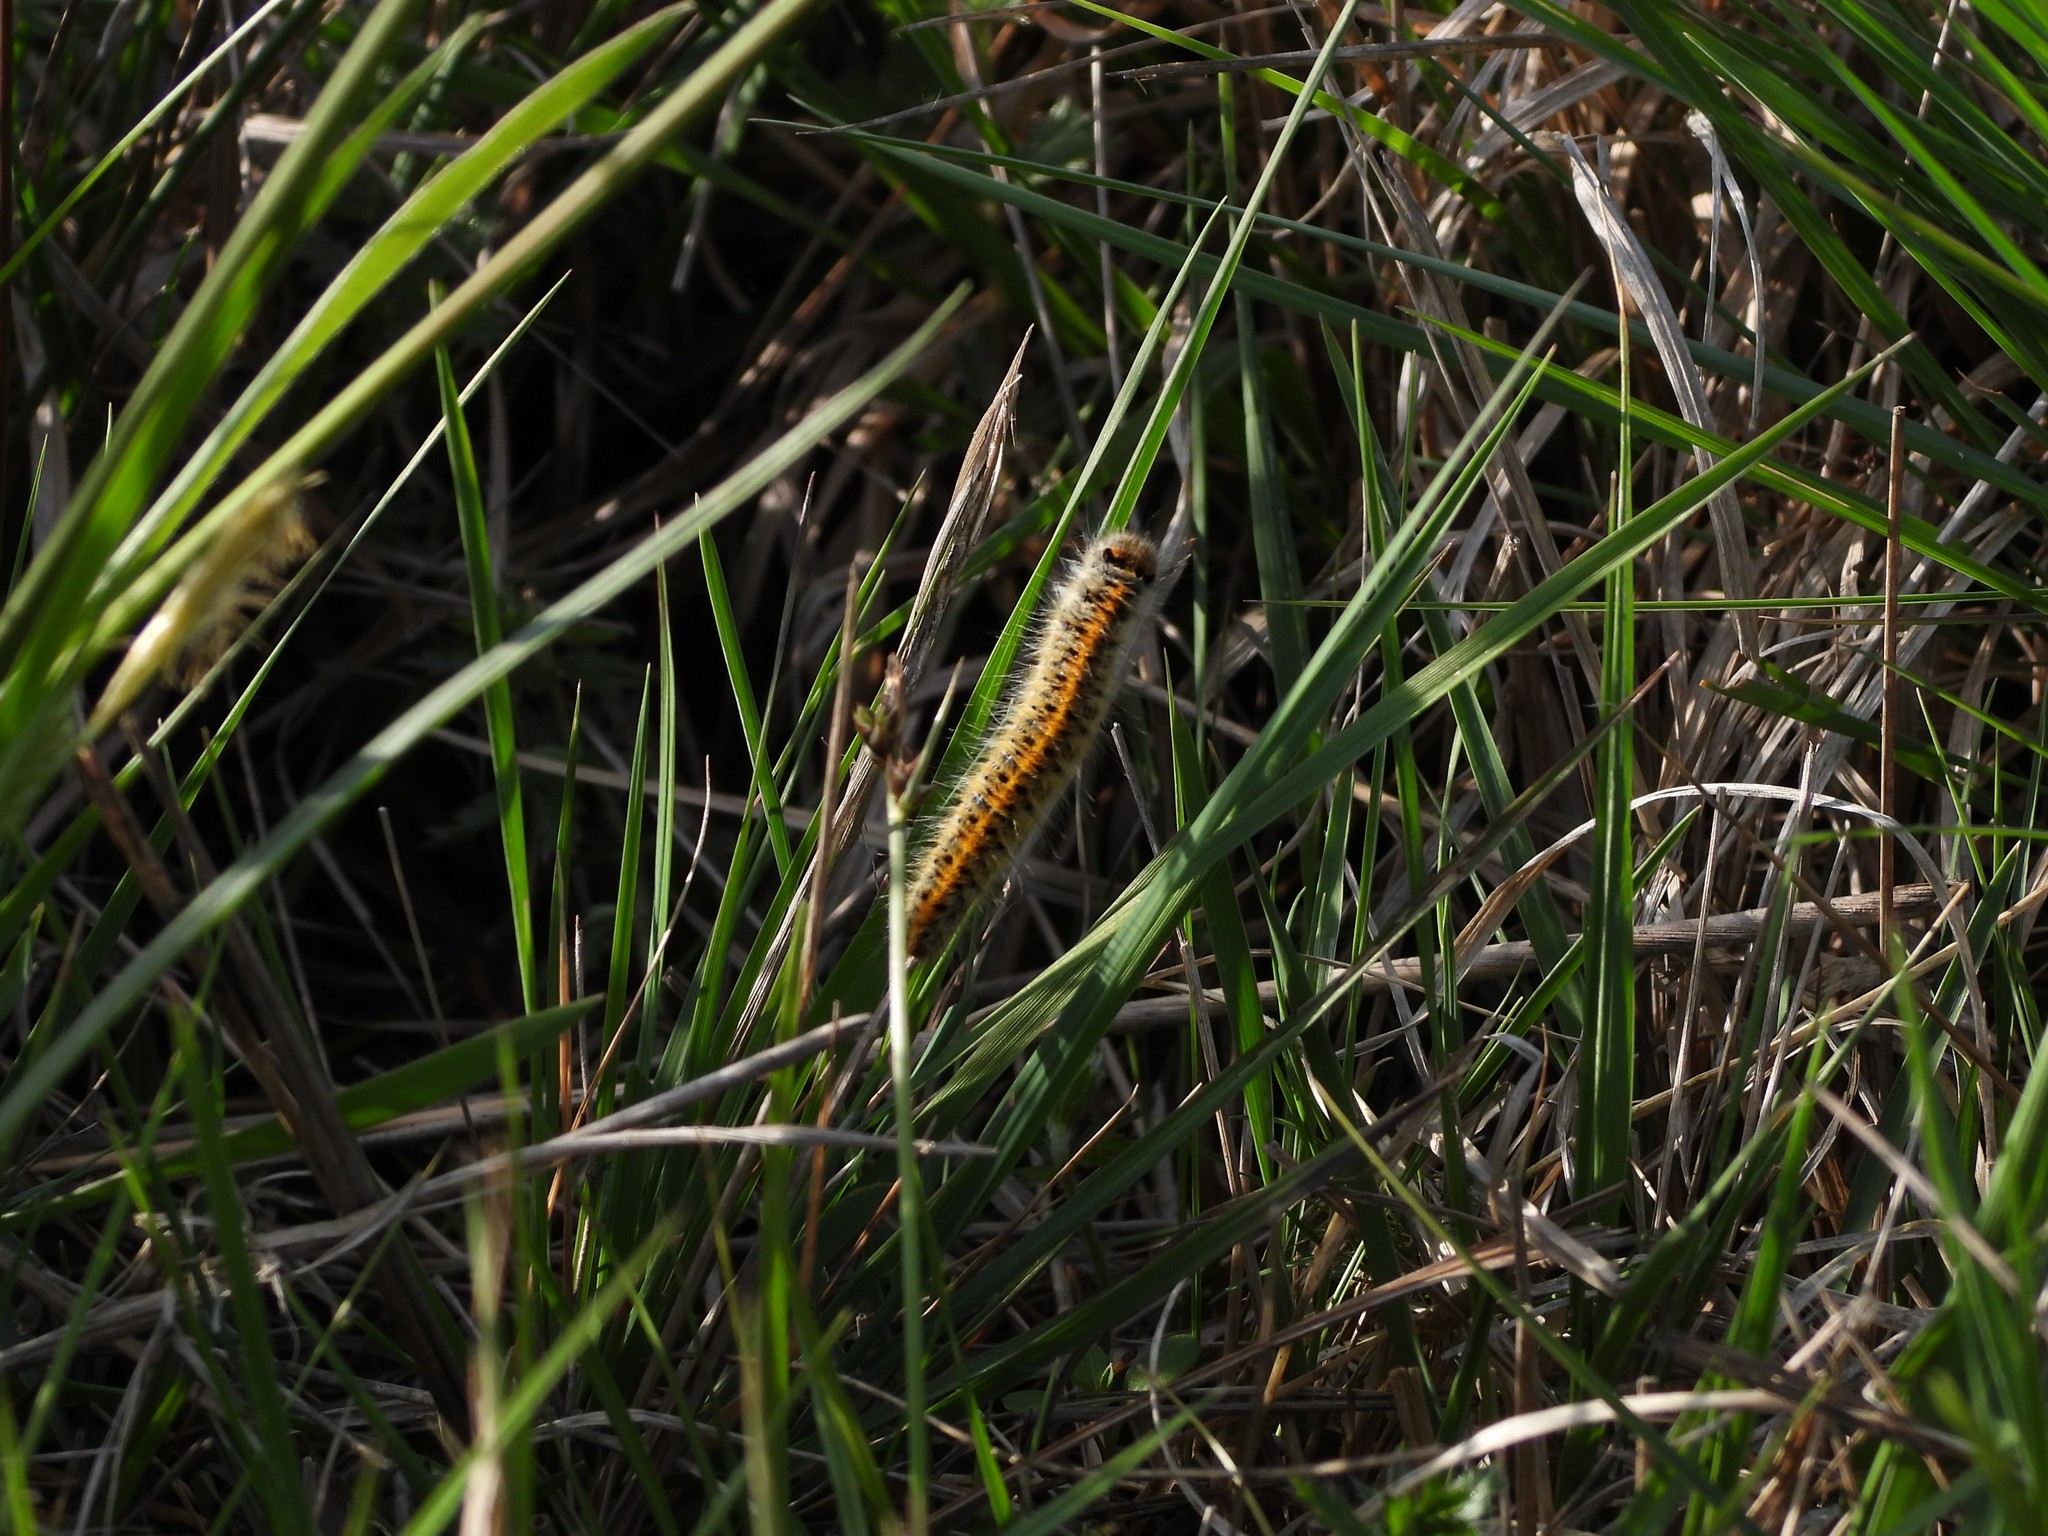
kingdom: Animalia
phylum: Arthropoda
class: Insecta
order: Lepidoptera
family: Lasiocampidae
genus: Lasiocampa
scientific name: Lasiocampa trifolii
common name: Grass eggar
